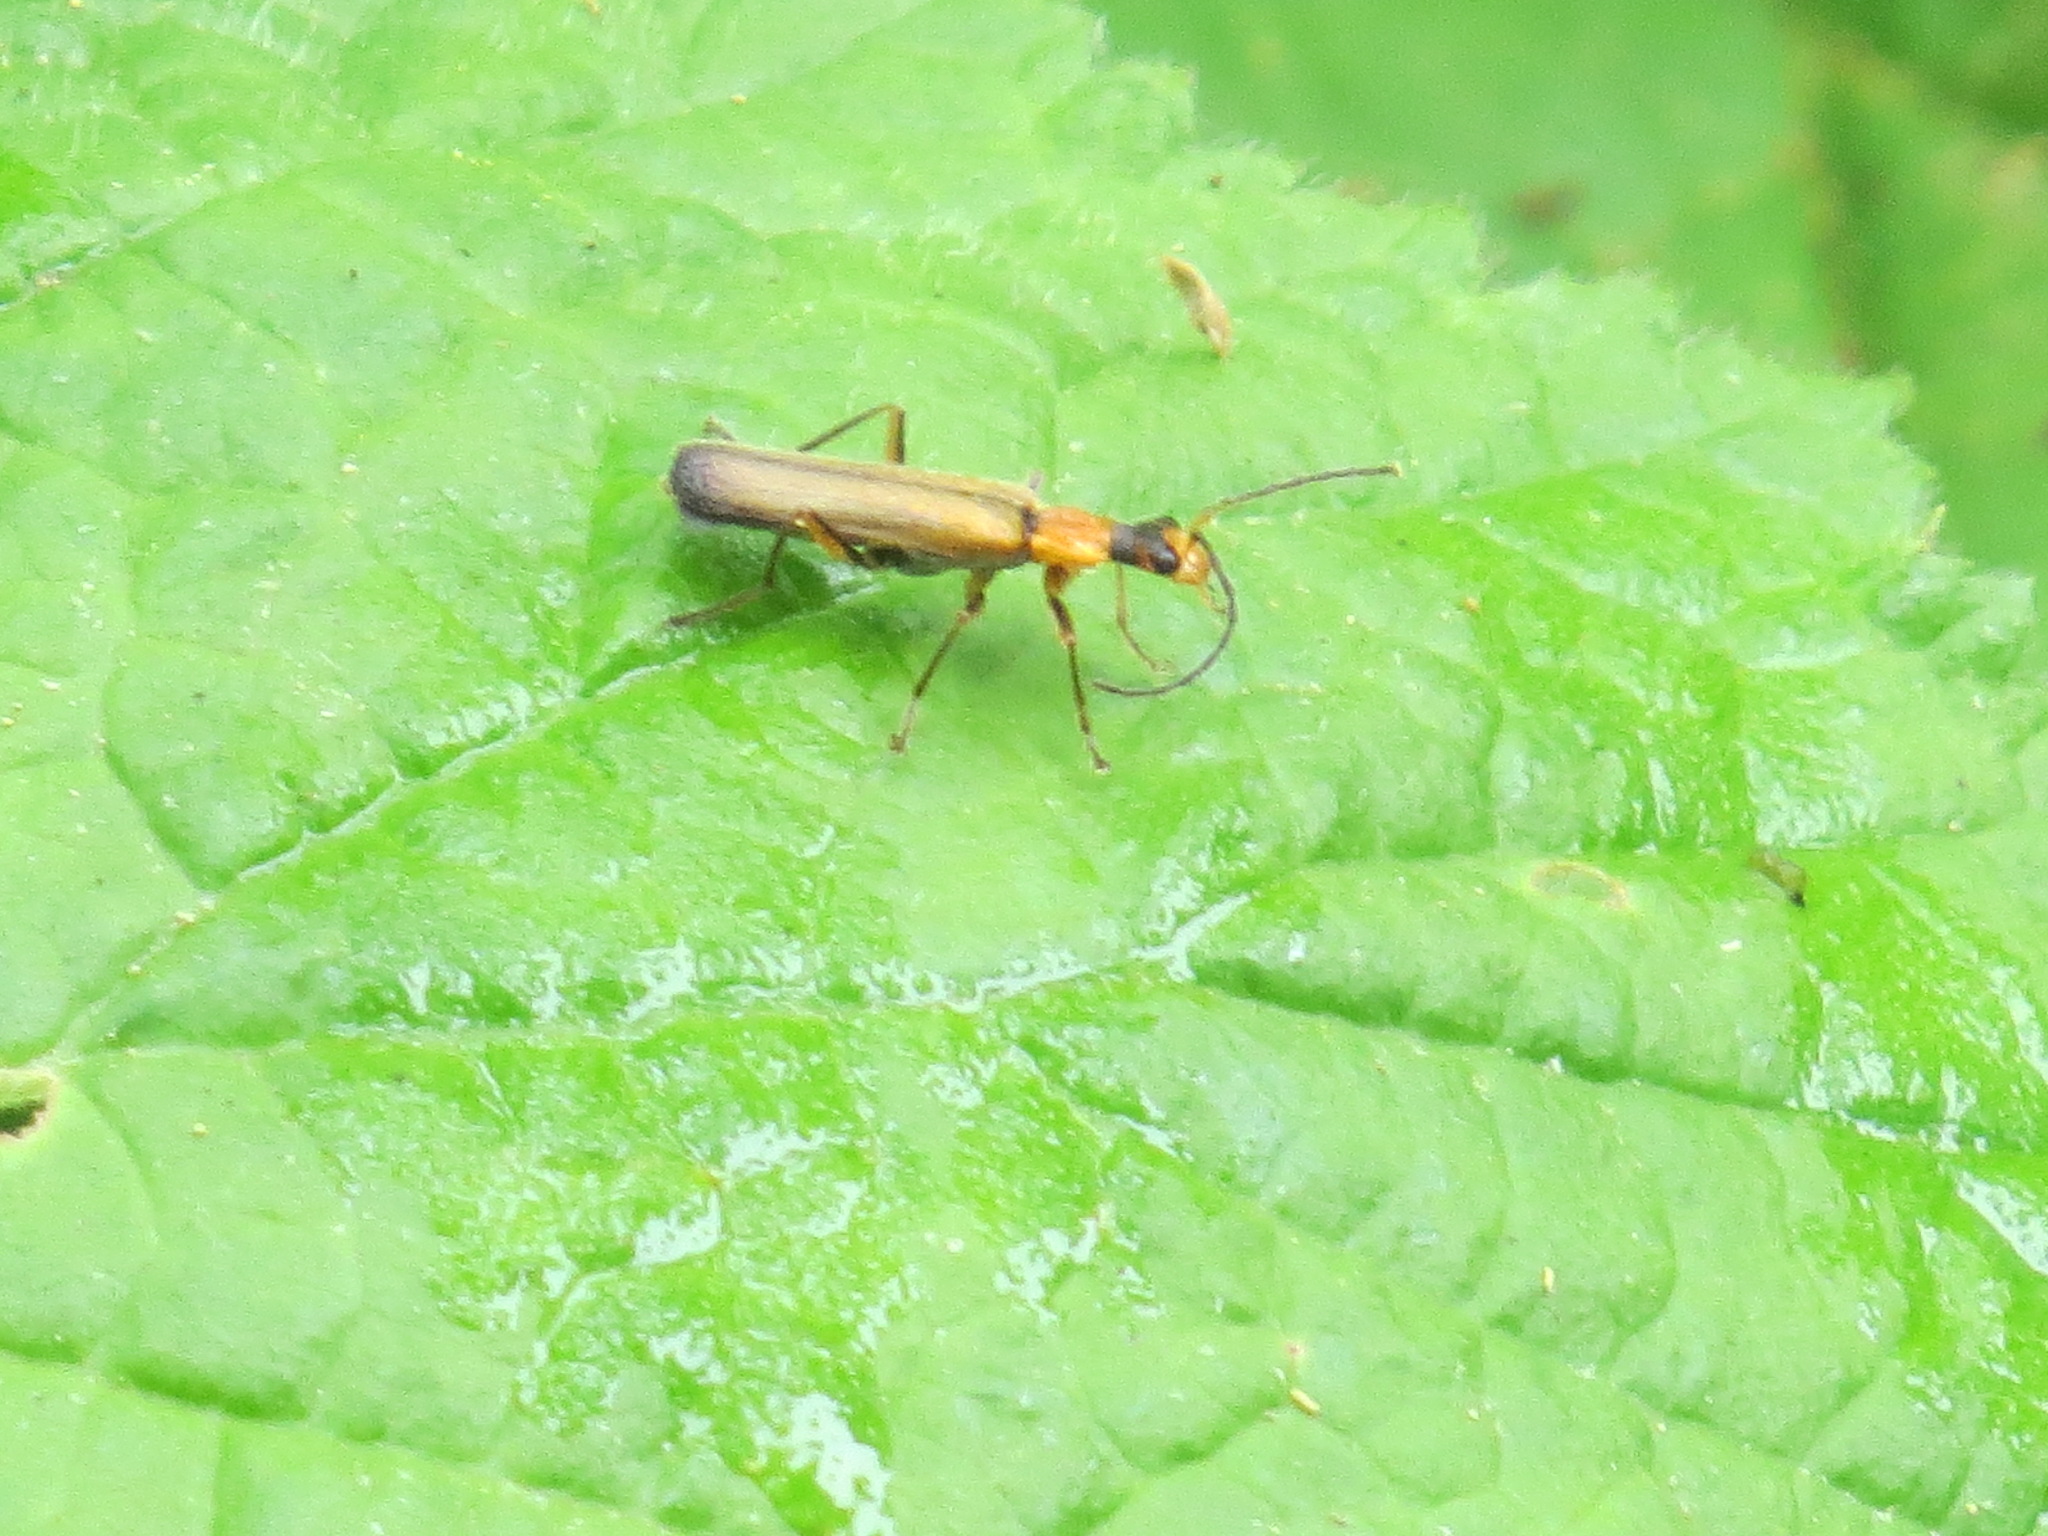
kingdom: Animalia
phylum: Arthropoda
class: Insecta
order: Coleoptera
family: Cantharidae
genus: Dichelotarsus
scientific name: Dichelotarsus cavicollis
